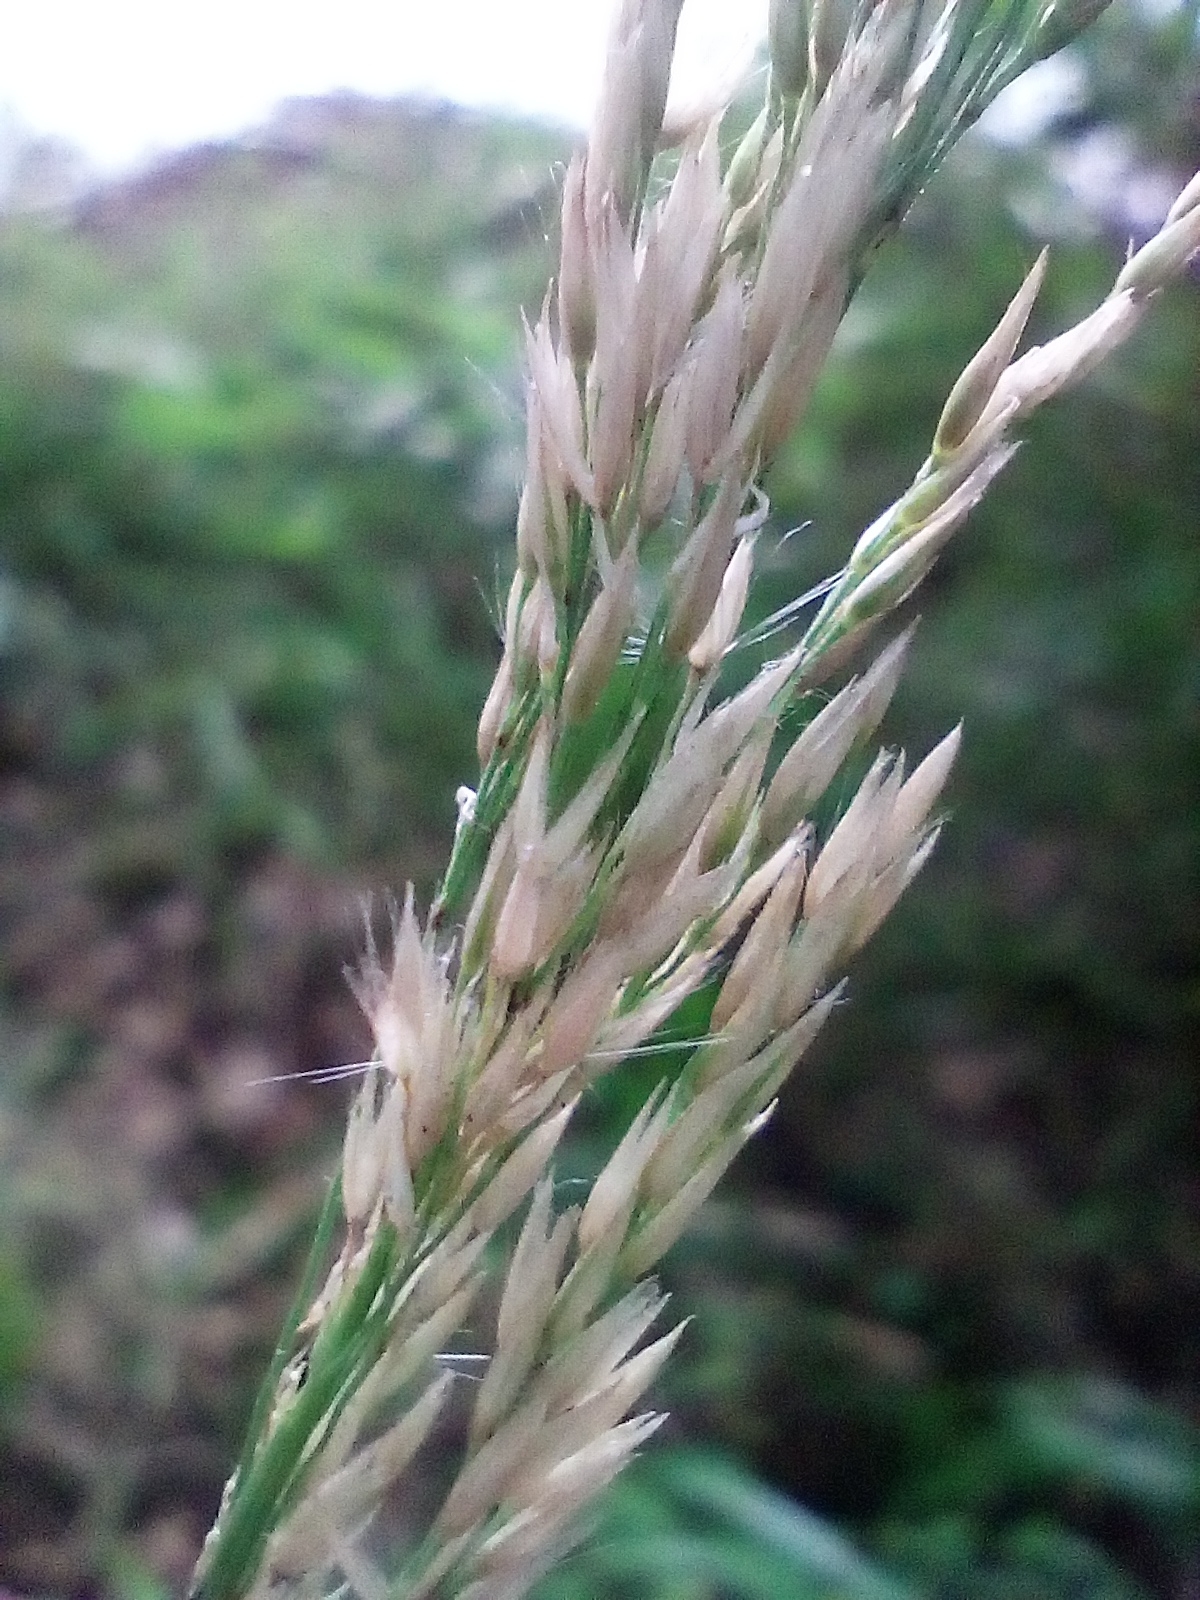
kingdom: Plantae
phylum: Tracheophyta
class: Liliopsida
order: Poales
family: Poaceae
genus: Calamagrostis
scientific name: Calamagrostis villosa
